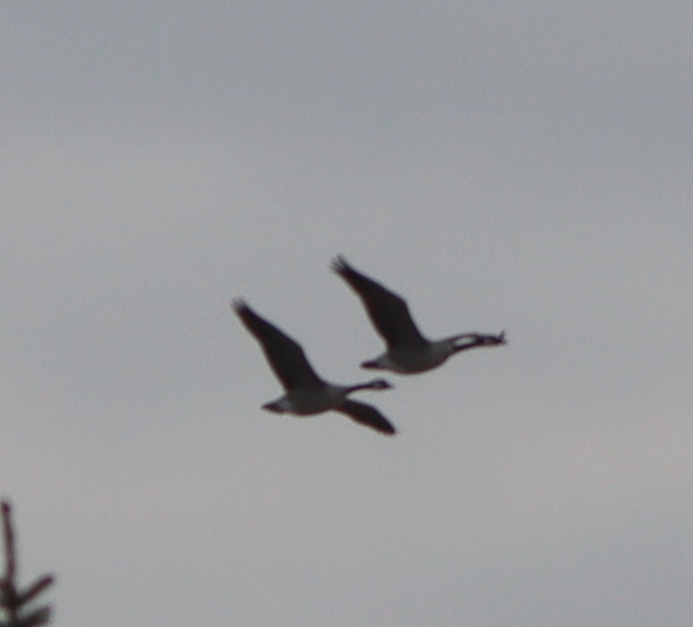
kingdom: Animalia
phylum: Chordata
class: Aves
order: Anseriformes
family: Anatidae
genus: Branta
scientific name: Branta canadensis
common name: Canada goose
